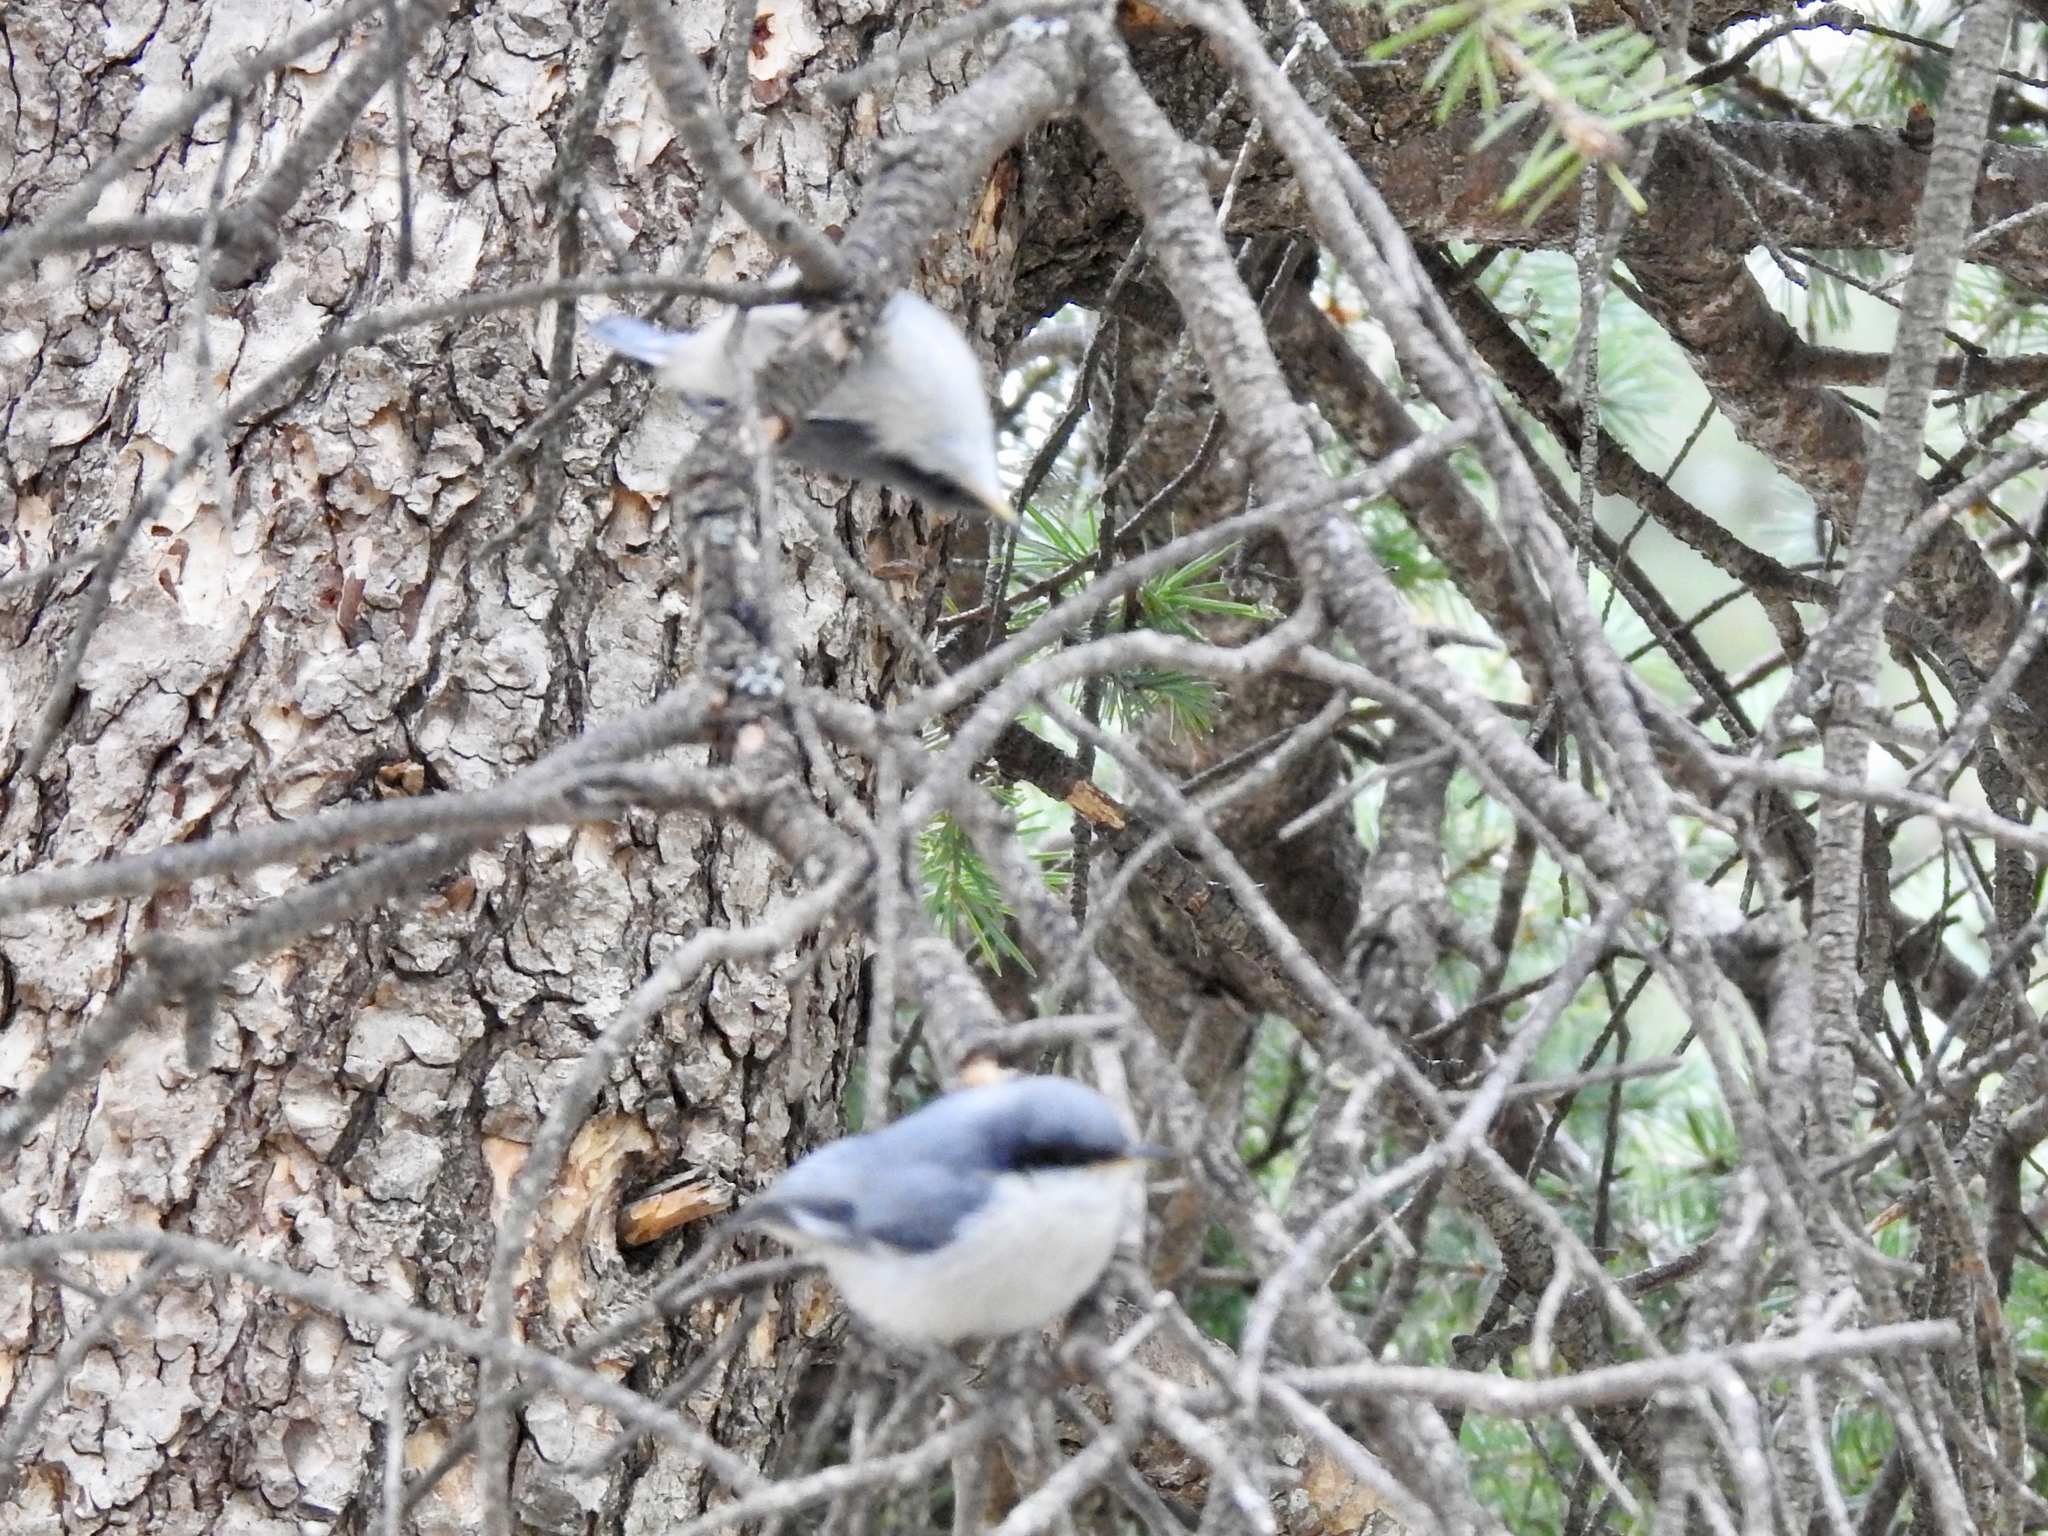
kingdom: Animalia
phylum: Chordata
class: Aves
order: Passeriformes
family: Sittidae
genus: Sitta
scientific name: Sitta pygmaea
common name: Pygmy nuthatch
